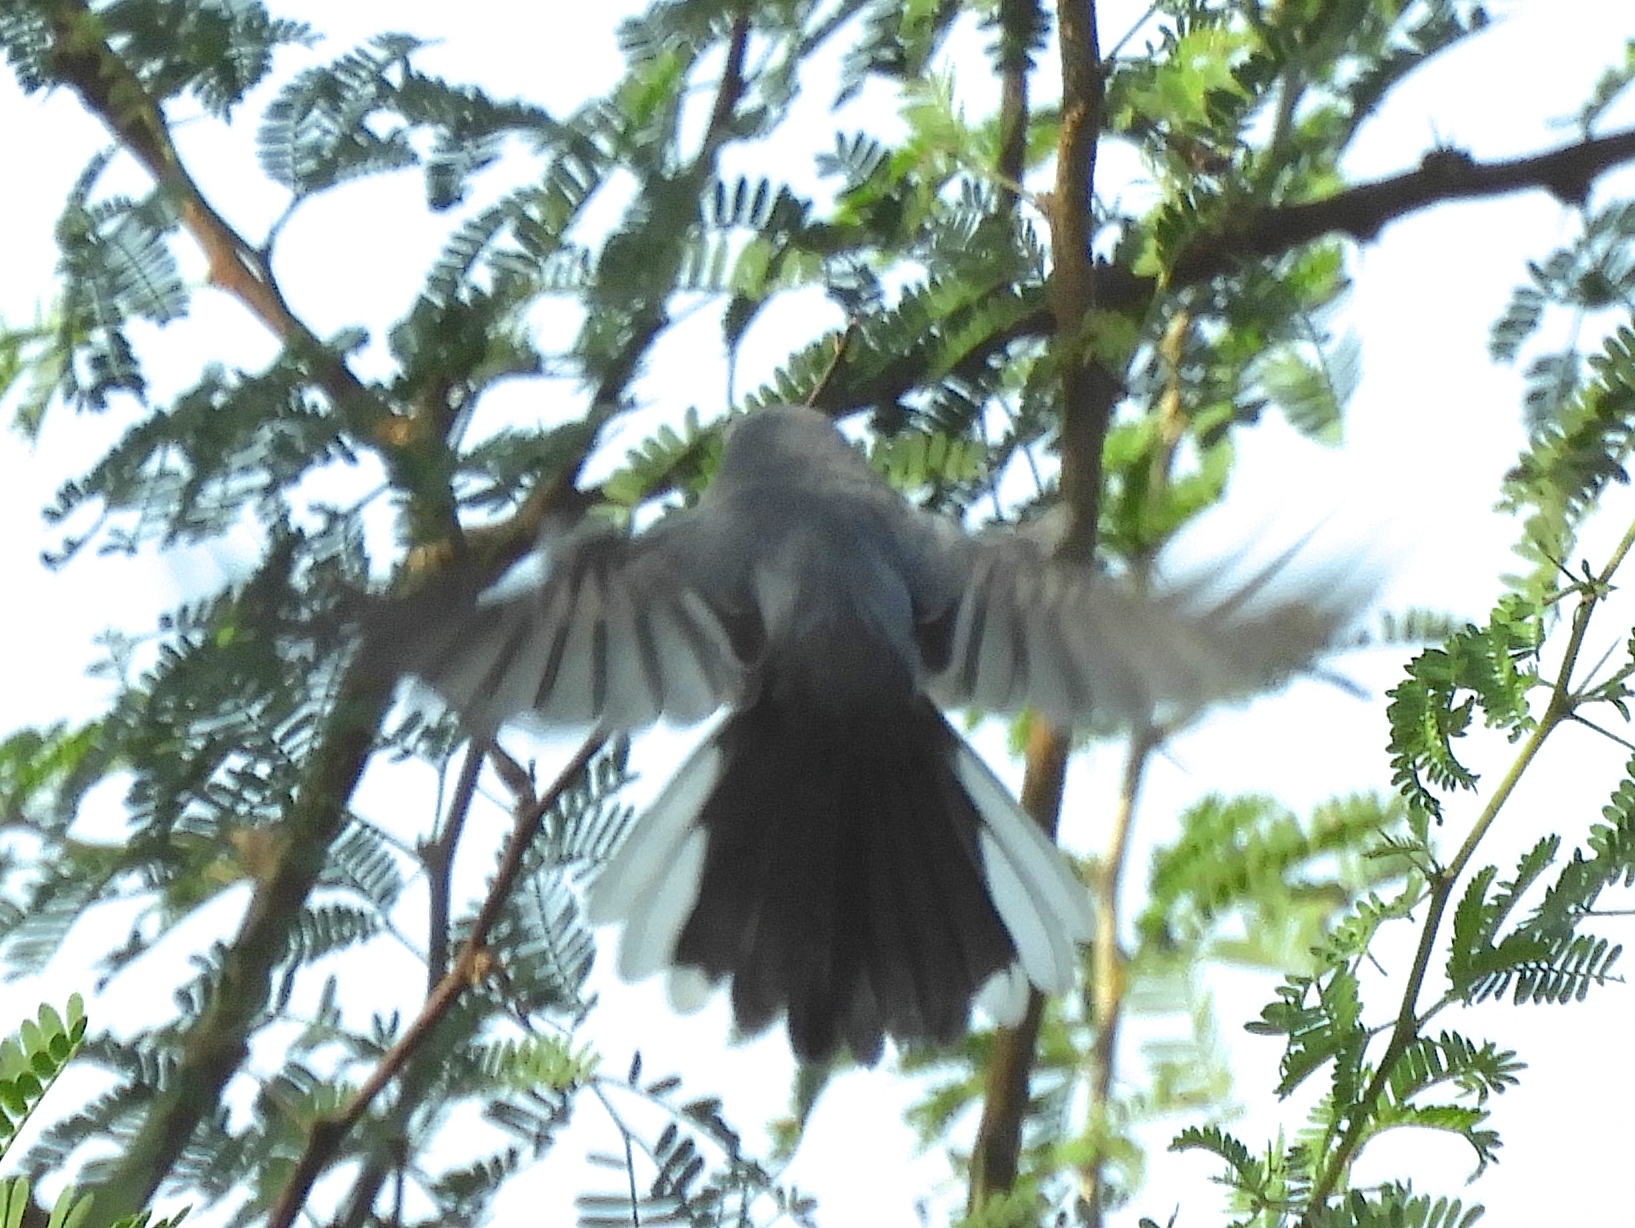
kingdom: Animalia
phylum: Chordata
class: Aves
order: Passeriformes
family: Polioptilidae
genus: Polioptila
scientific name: Polioptila
